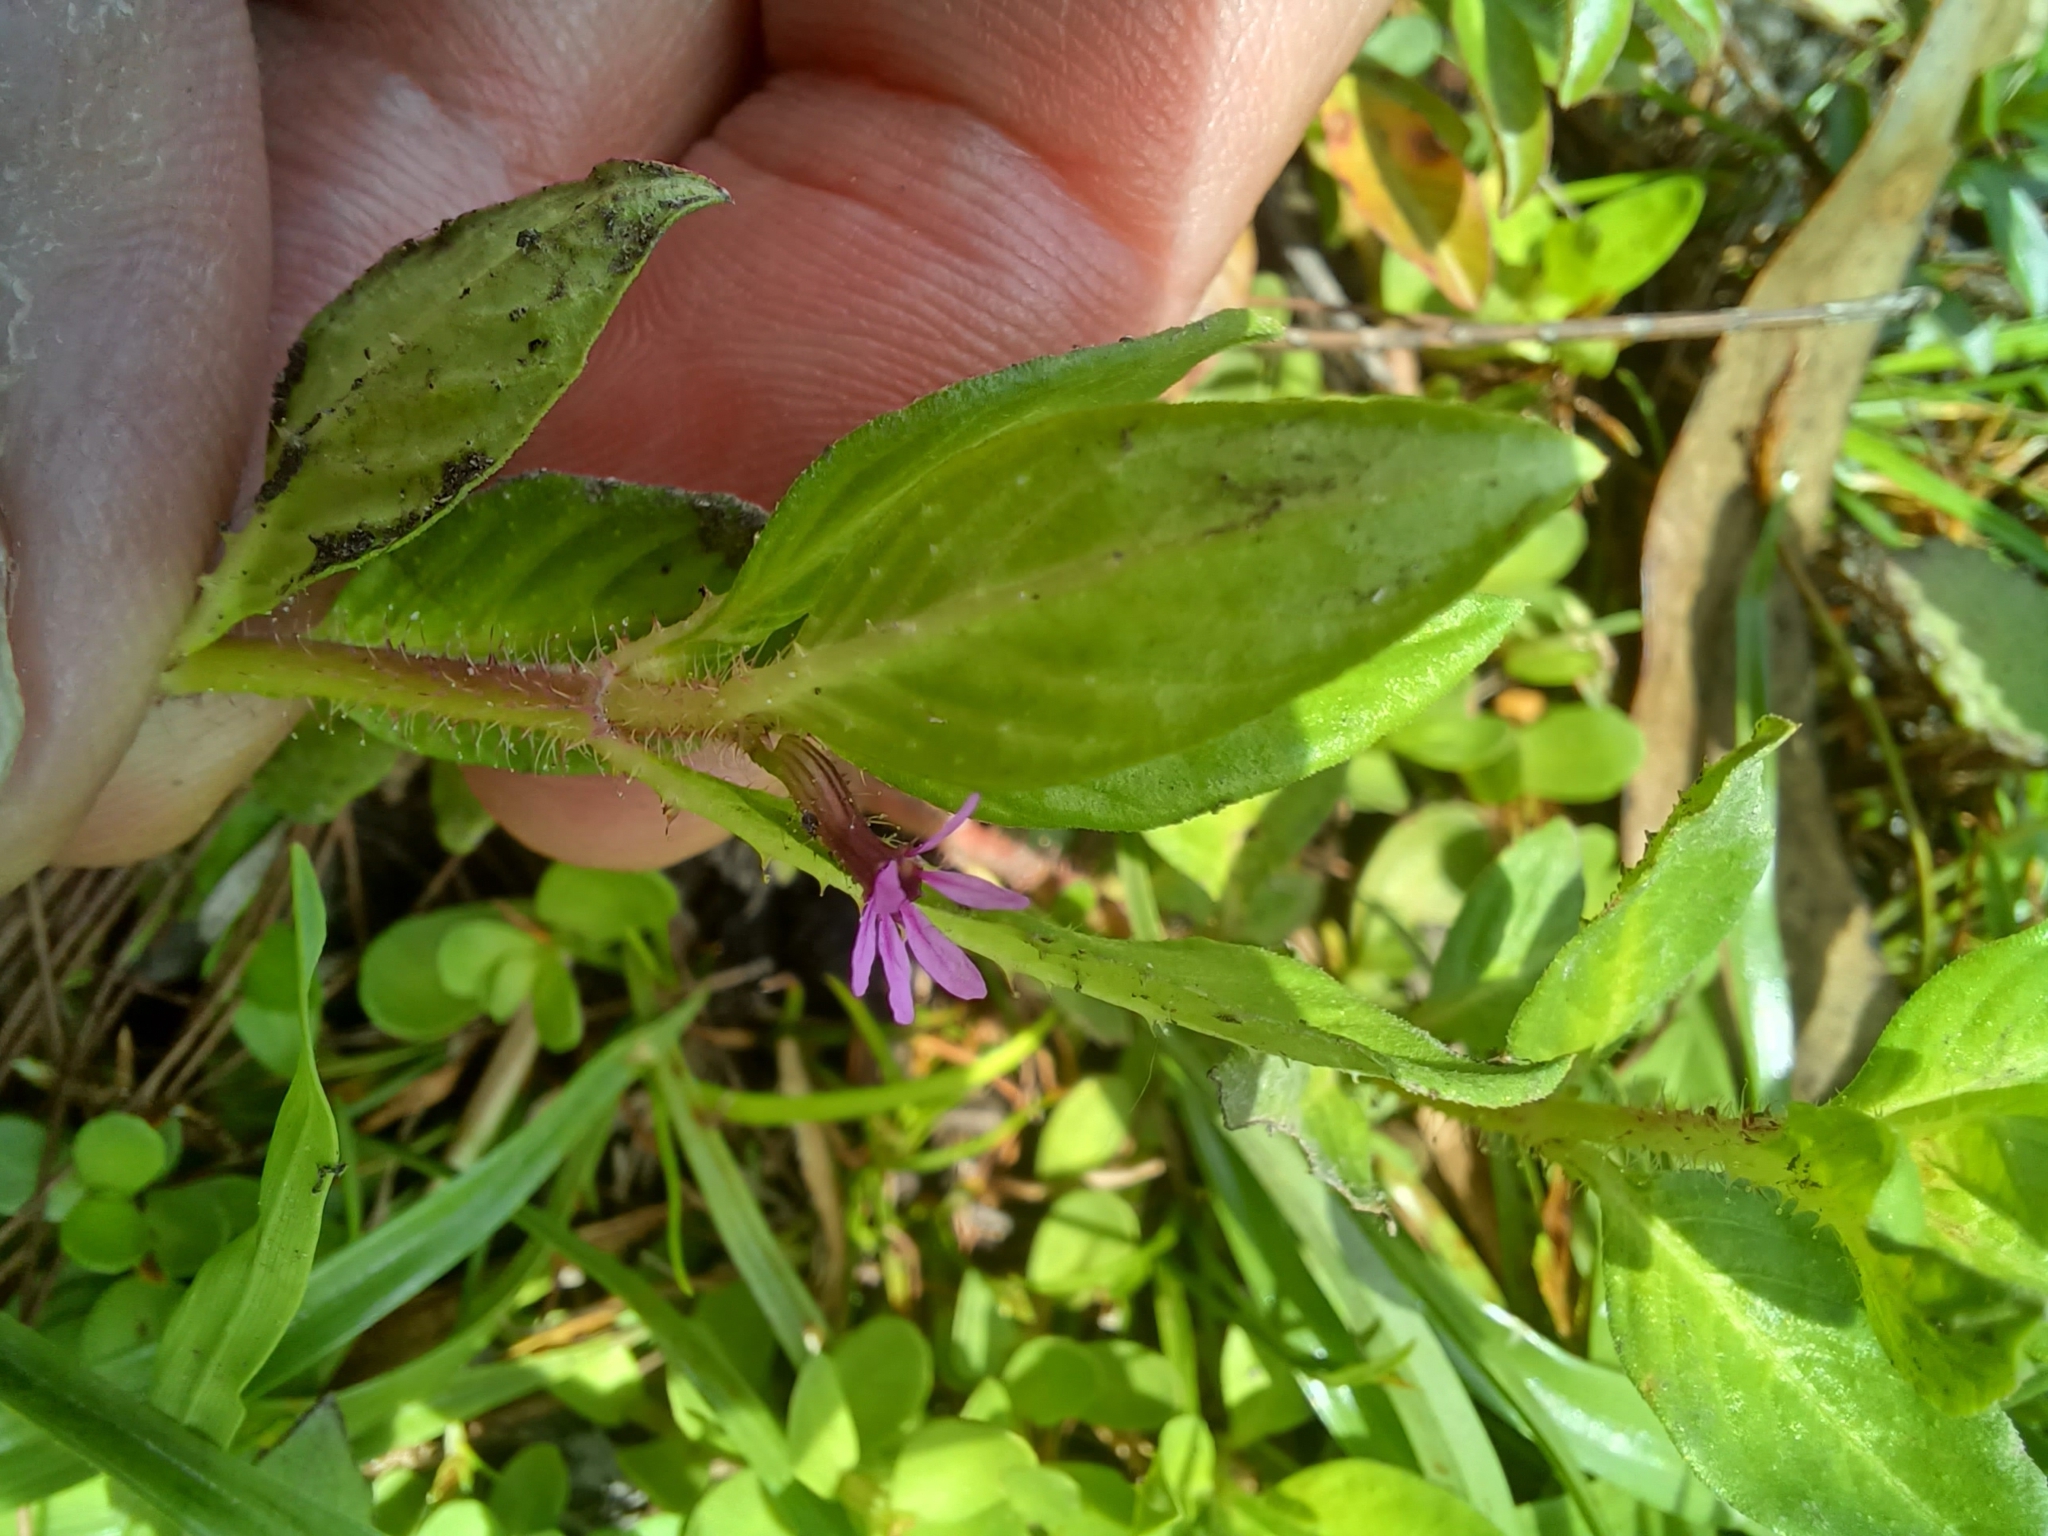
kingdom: Plantae
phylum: Tracheophyta
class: Magnoliopsida
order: Myrtales
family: Lythraceae
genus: Cuphea
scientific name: Cuphea carthagenensis
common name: Colombian waxweed
